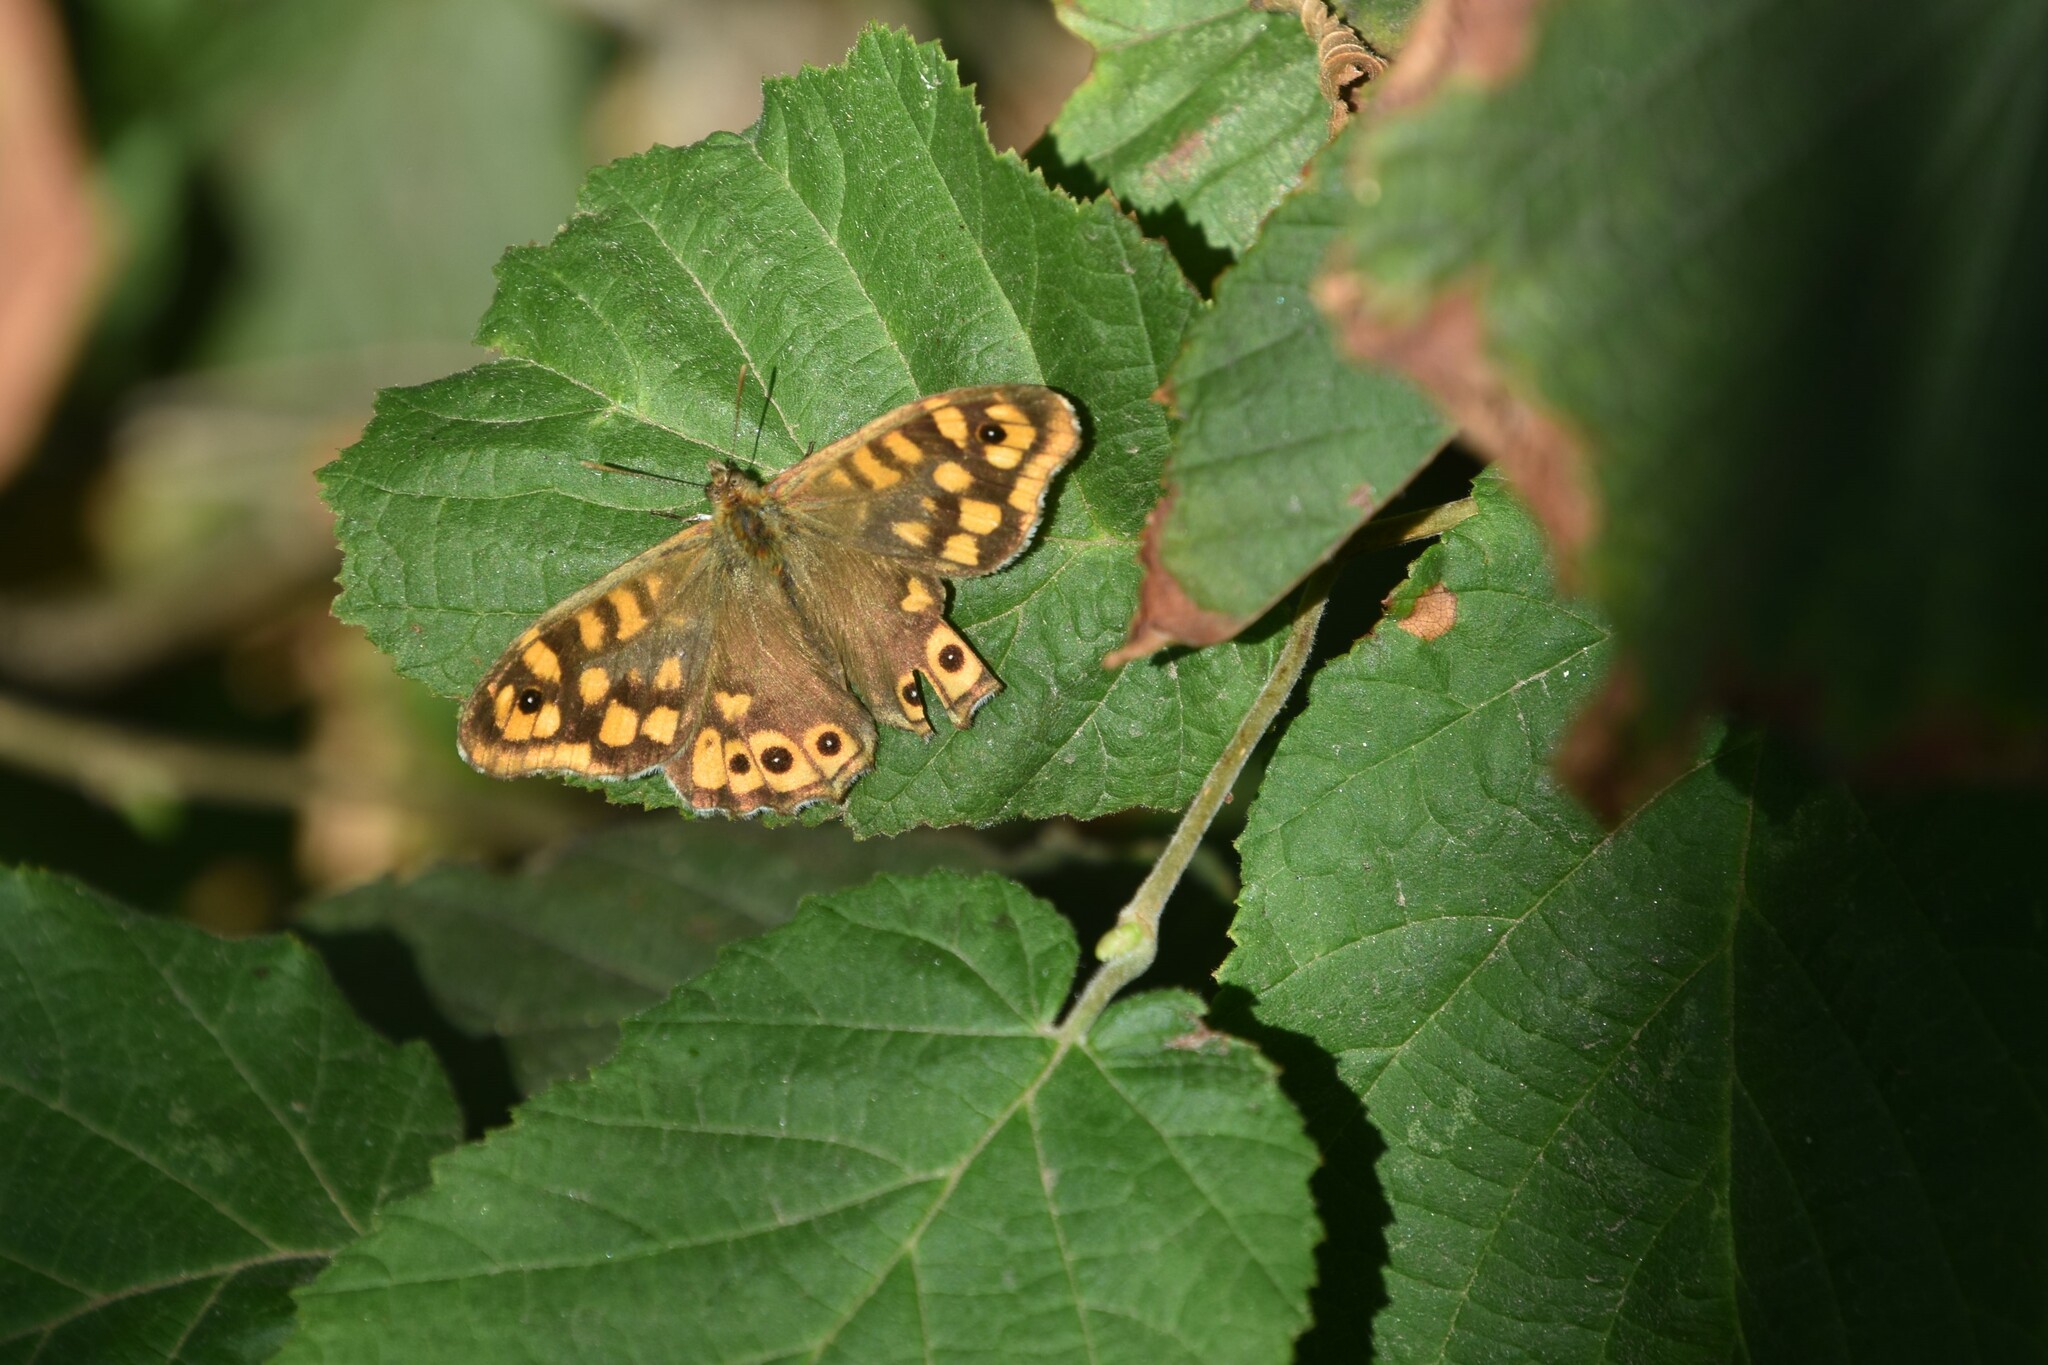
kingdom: Animalia
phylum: Arthropoda
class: Insecta
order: Lepidoptera
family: Nymphalidae
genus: Pararge
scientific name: Pararge aegeria
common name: Speckled wood
